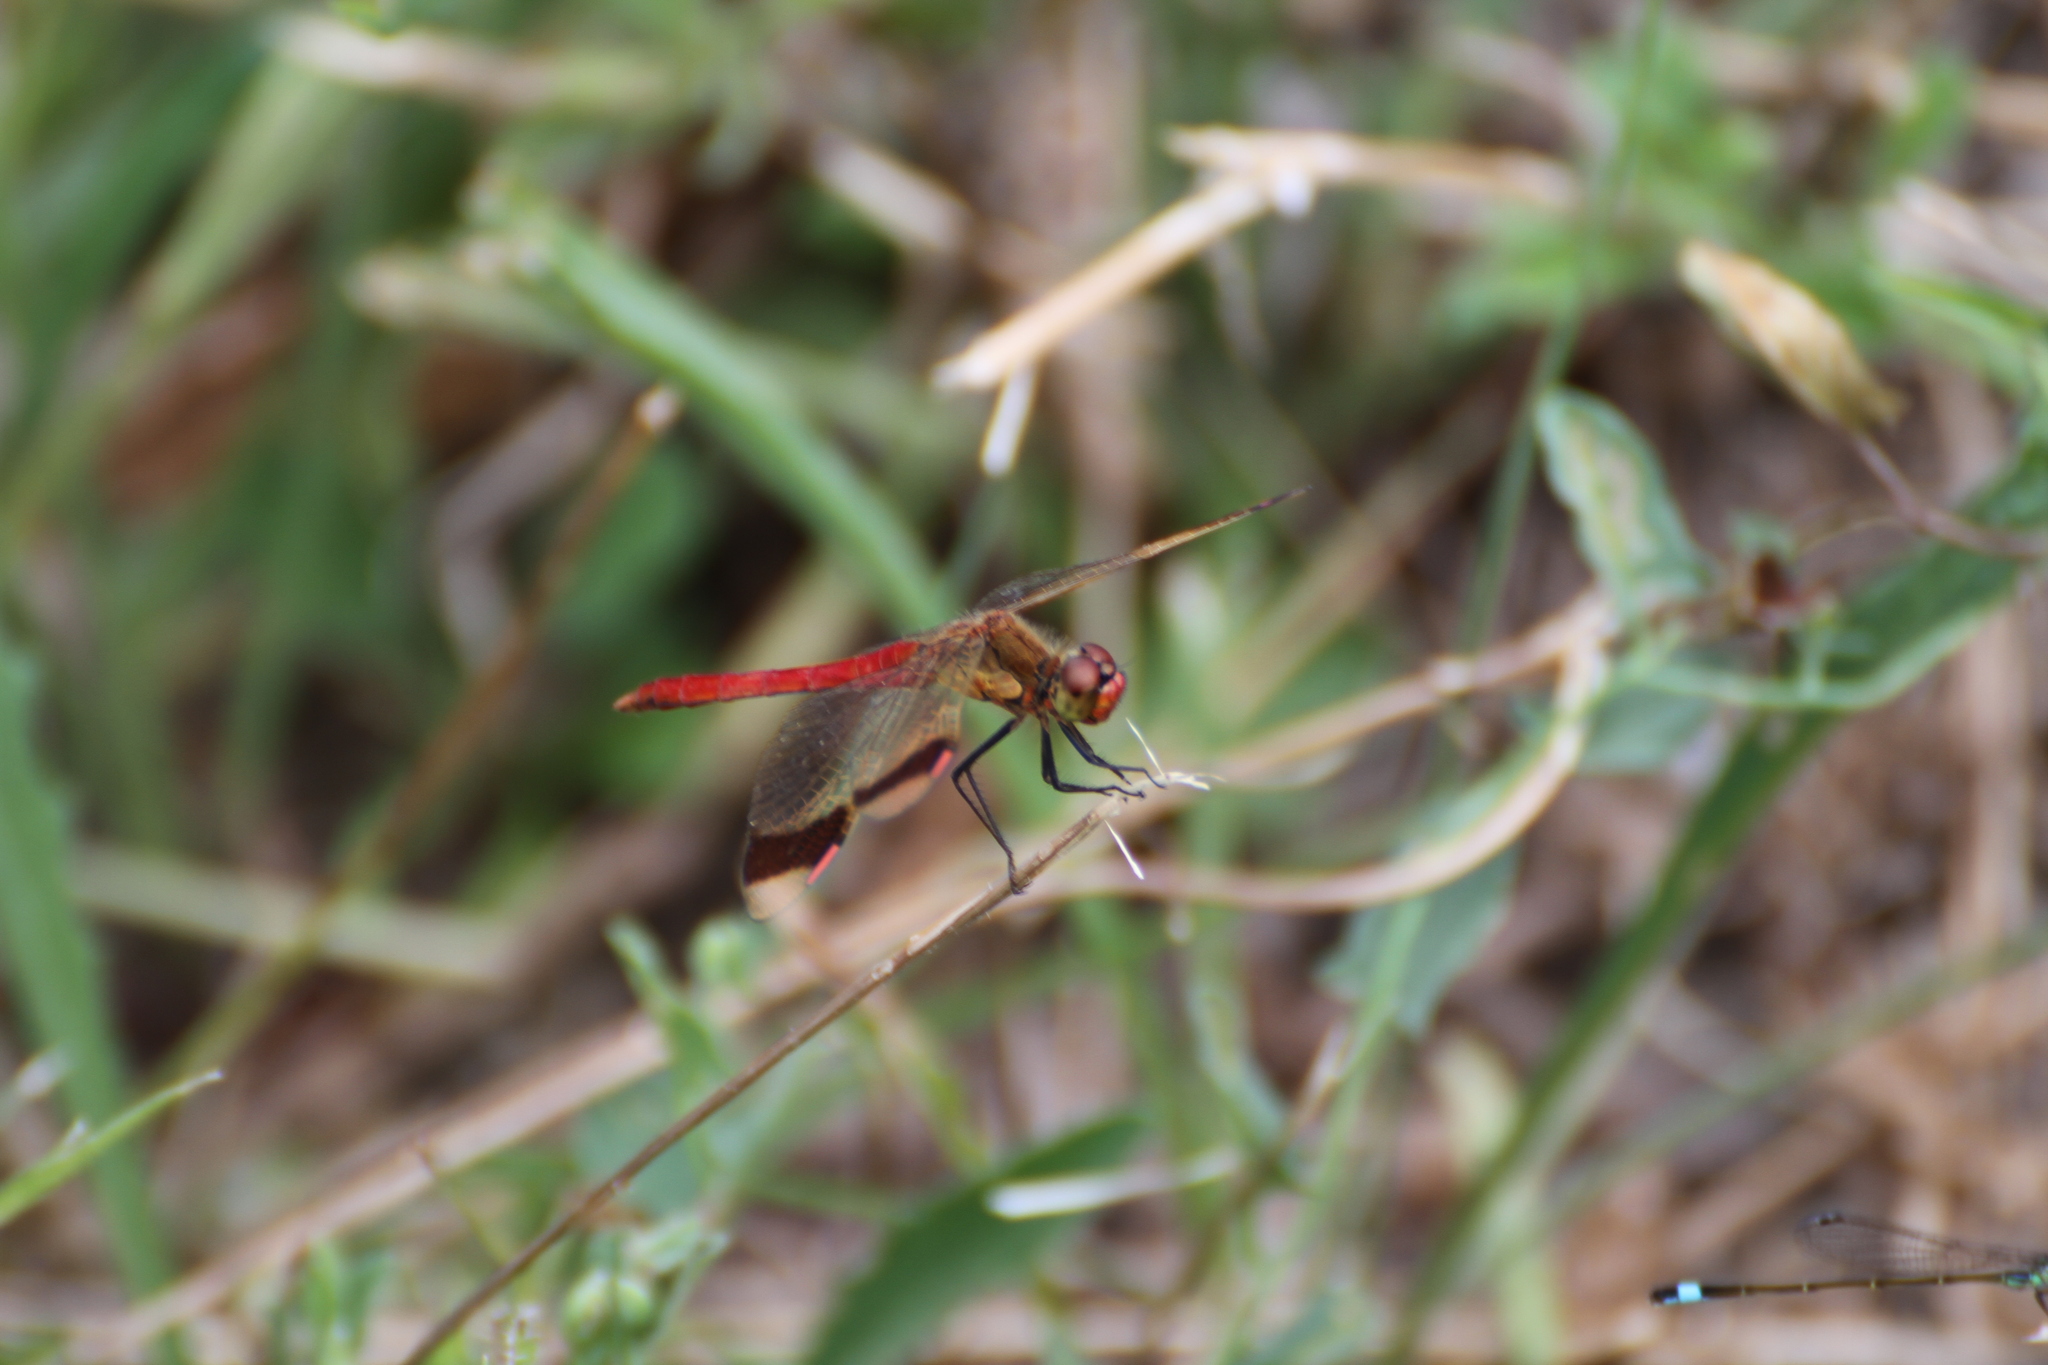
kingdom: Animalia
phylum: Arthropoda
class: Insecta
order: Odonata
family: Libellulidae
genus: Sympetrum
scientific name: Sympetrum pedemontanum
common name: Banded darter
